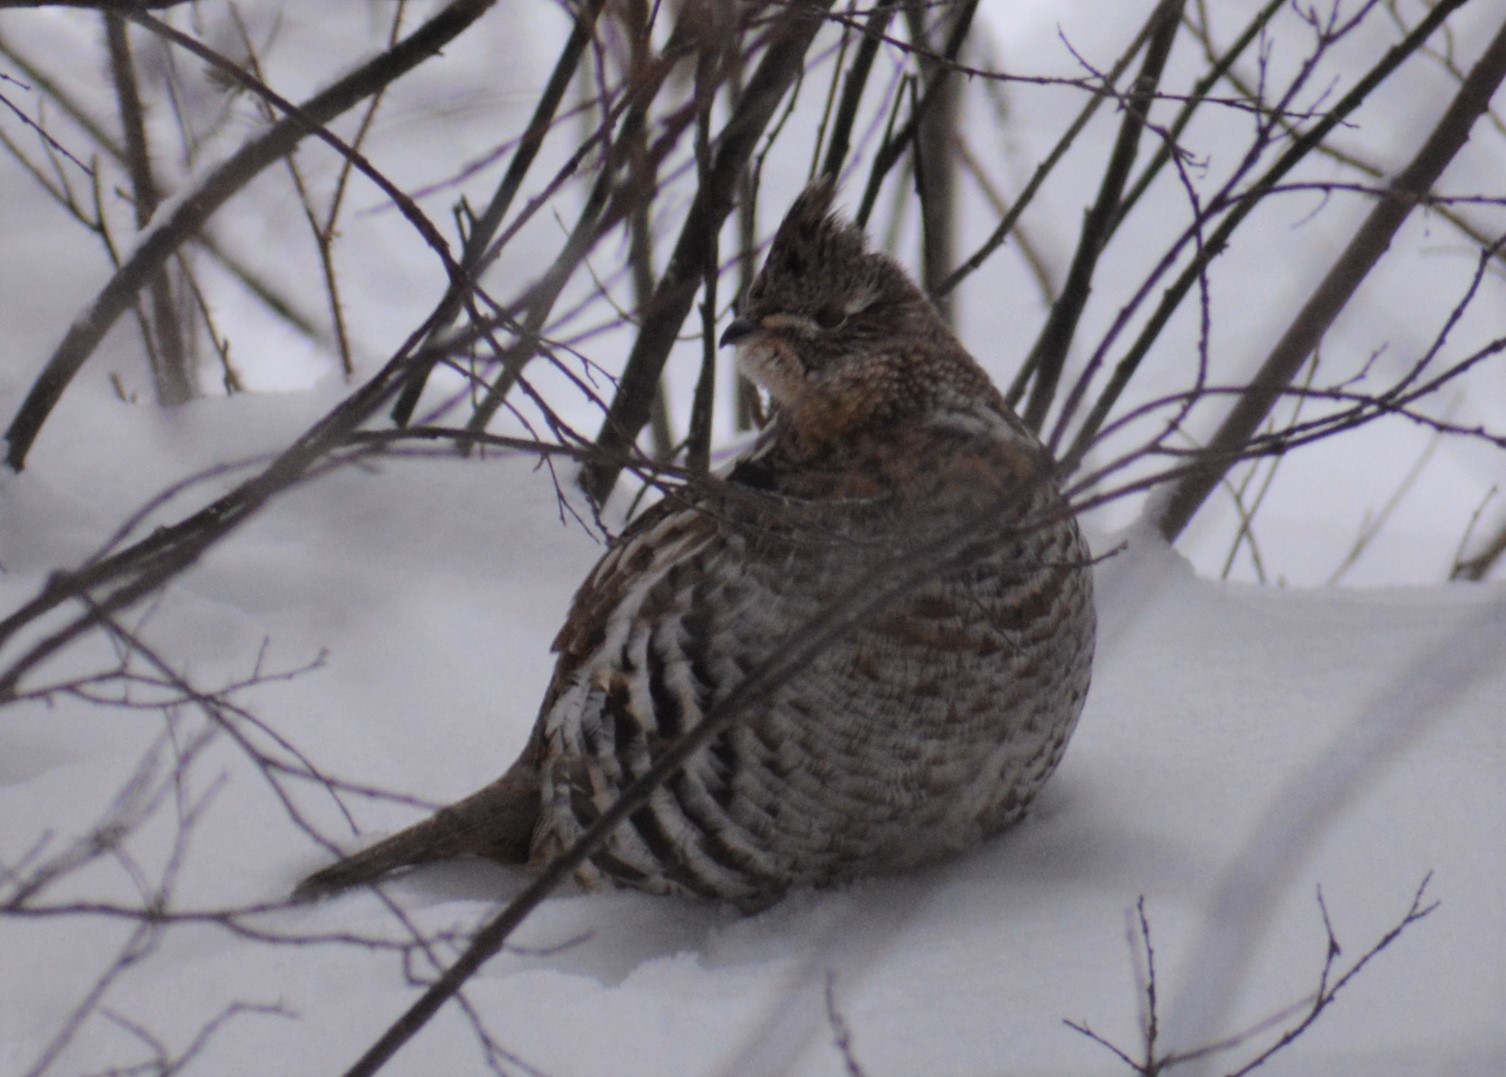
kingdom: Animalia
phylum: Chordata
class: Aves
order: Galliformes
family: Phasianidae
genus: Bonasa
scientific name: Bonasa umbellus
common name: Ruffed grouse
